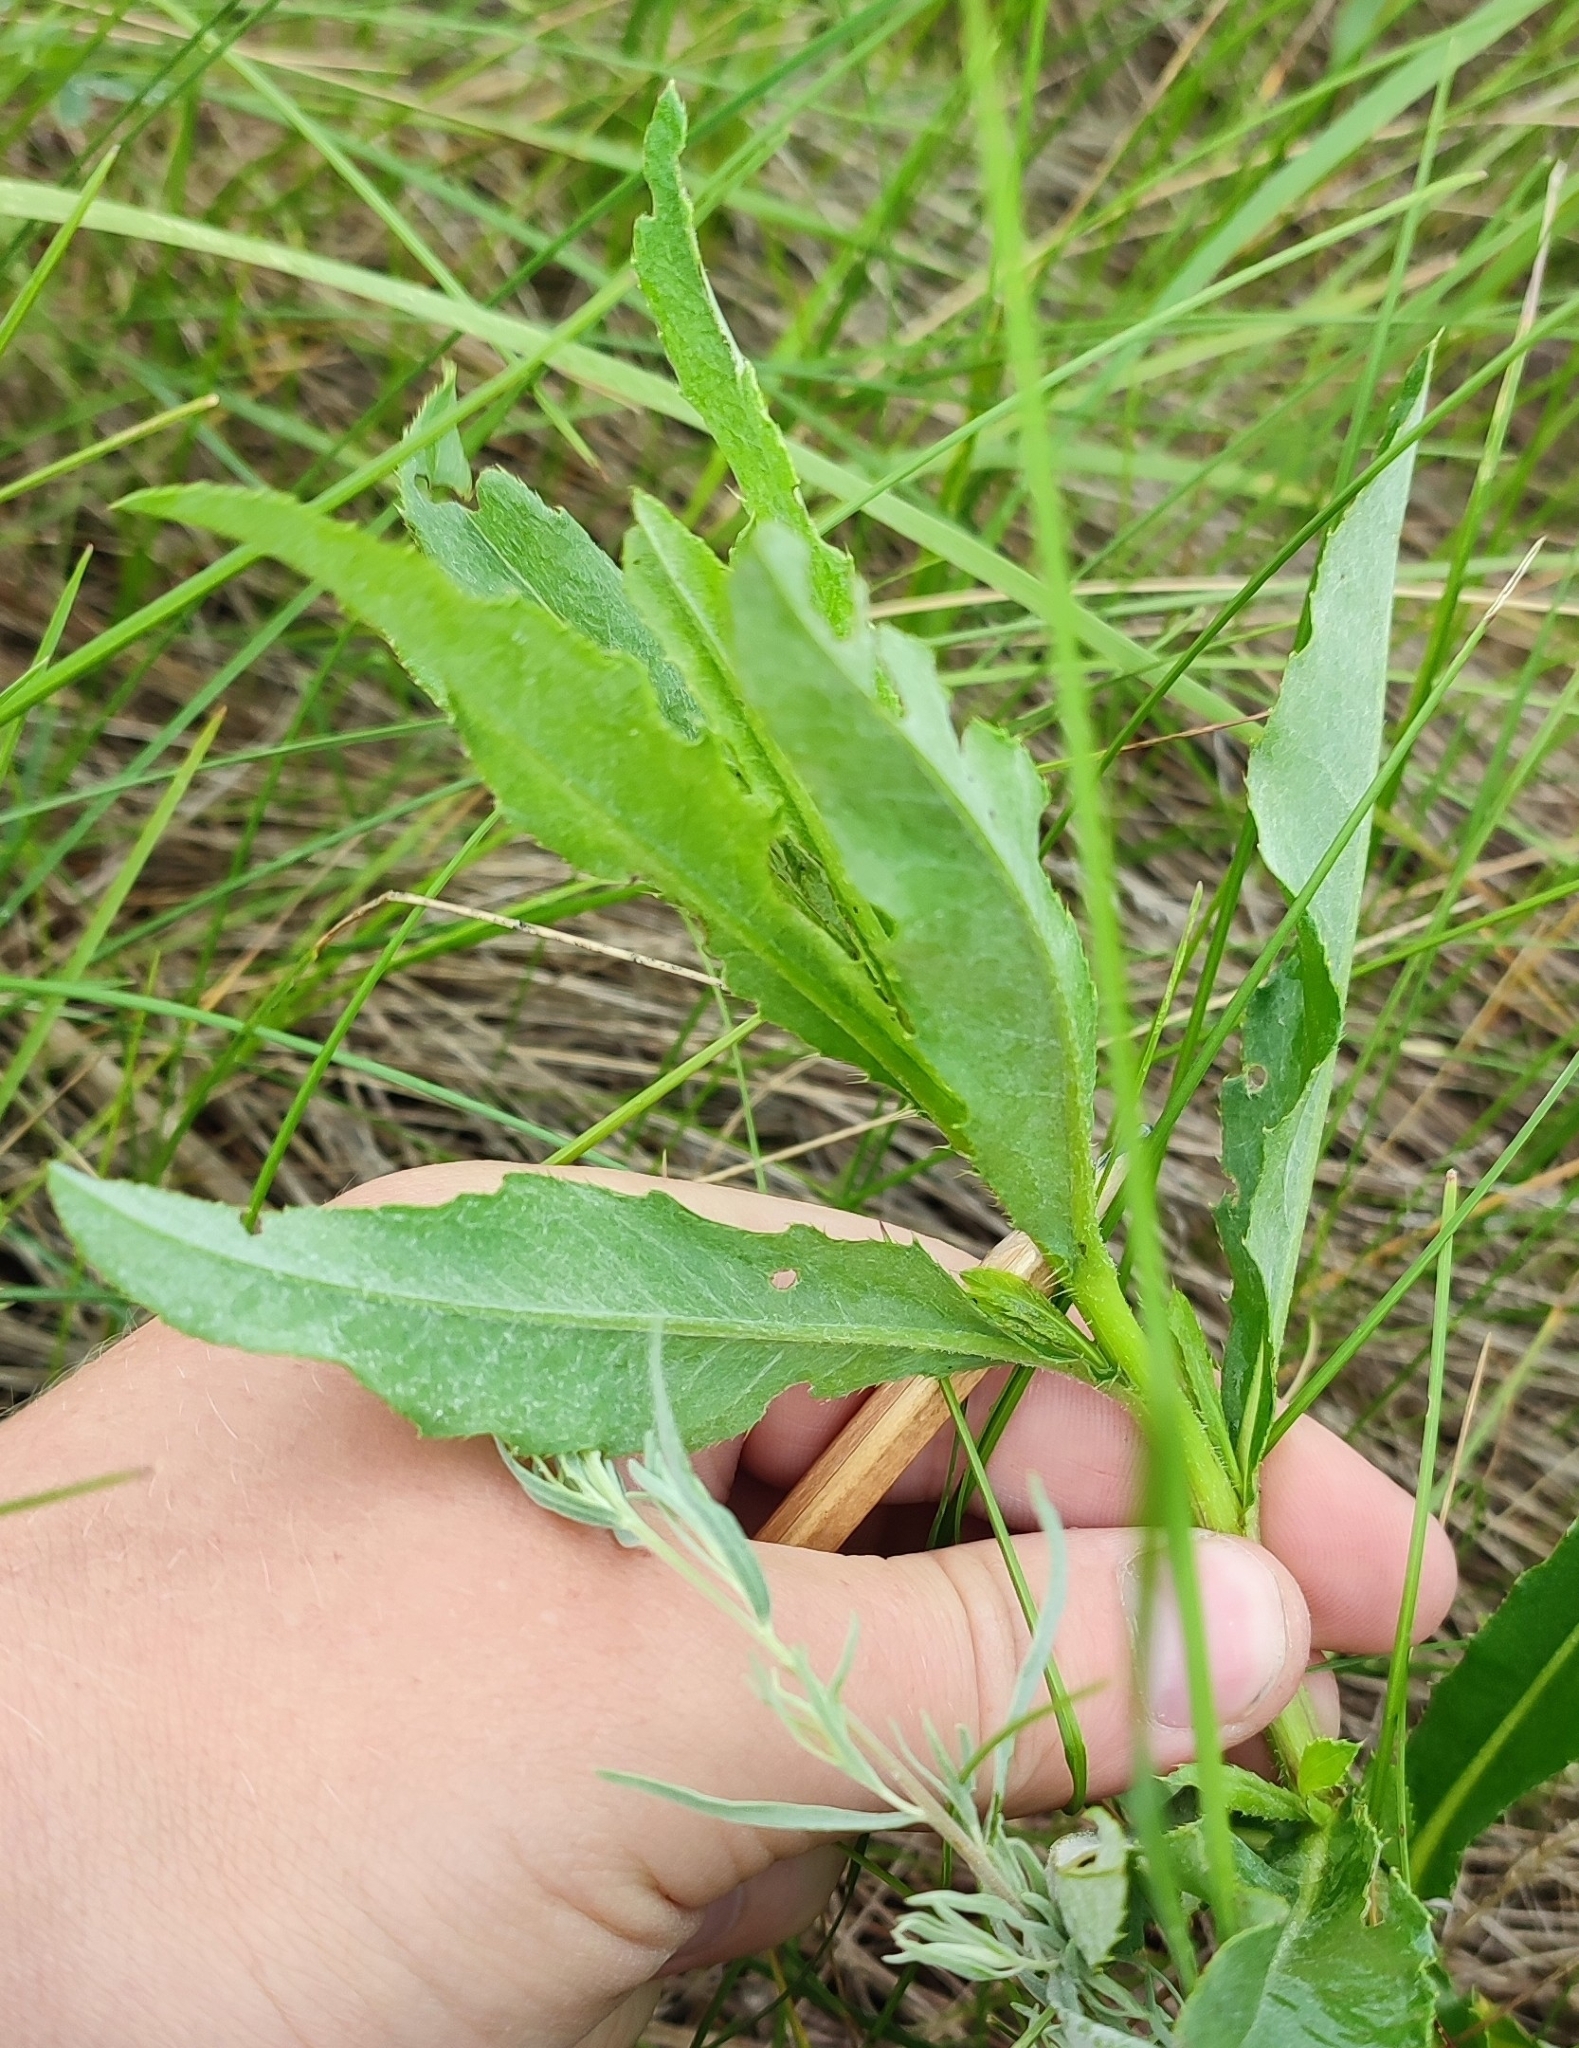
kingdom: Plantae
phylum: Tracheophyta
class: Magnoliopsida
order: Asterales
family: Asteraceae
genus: Cirsium
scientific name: Cirsium arvense
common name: Creeping thistle
